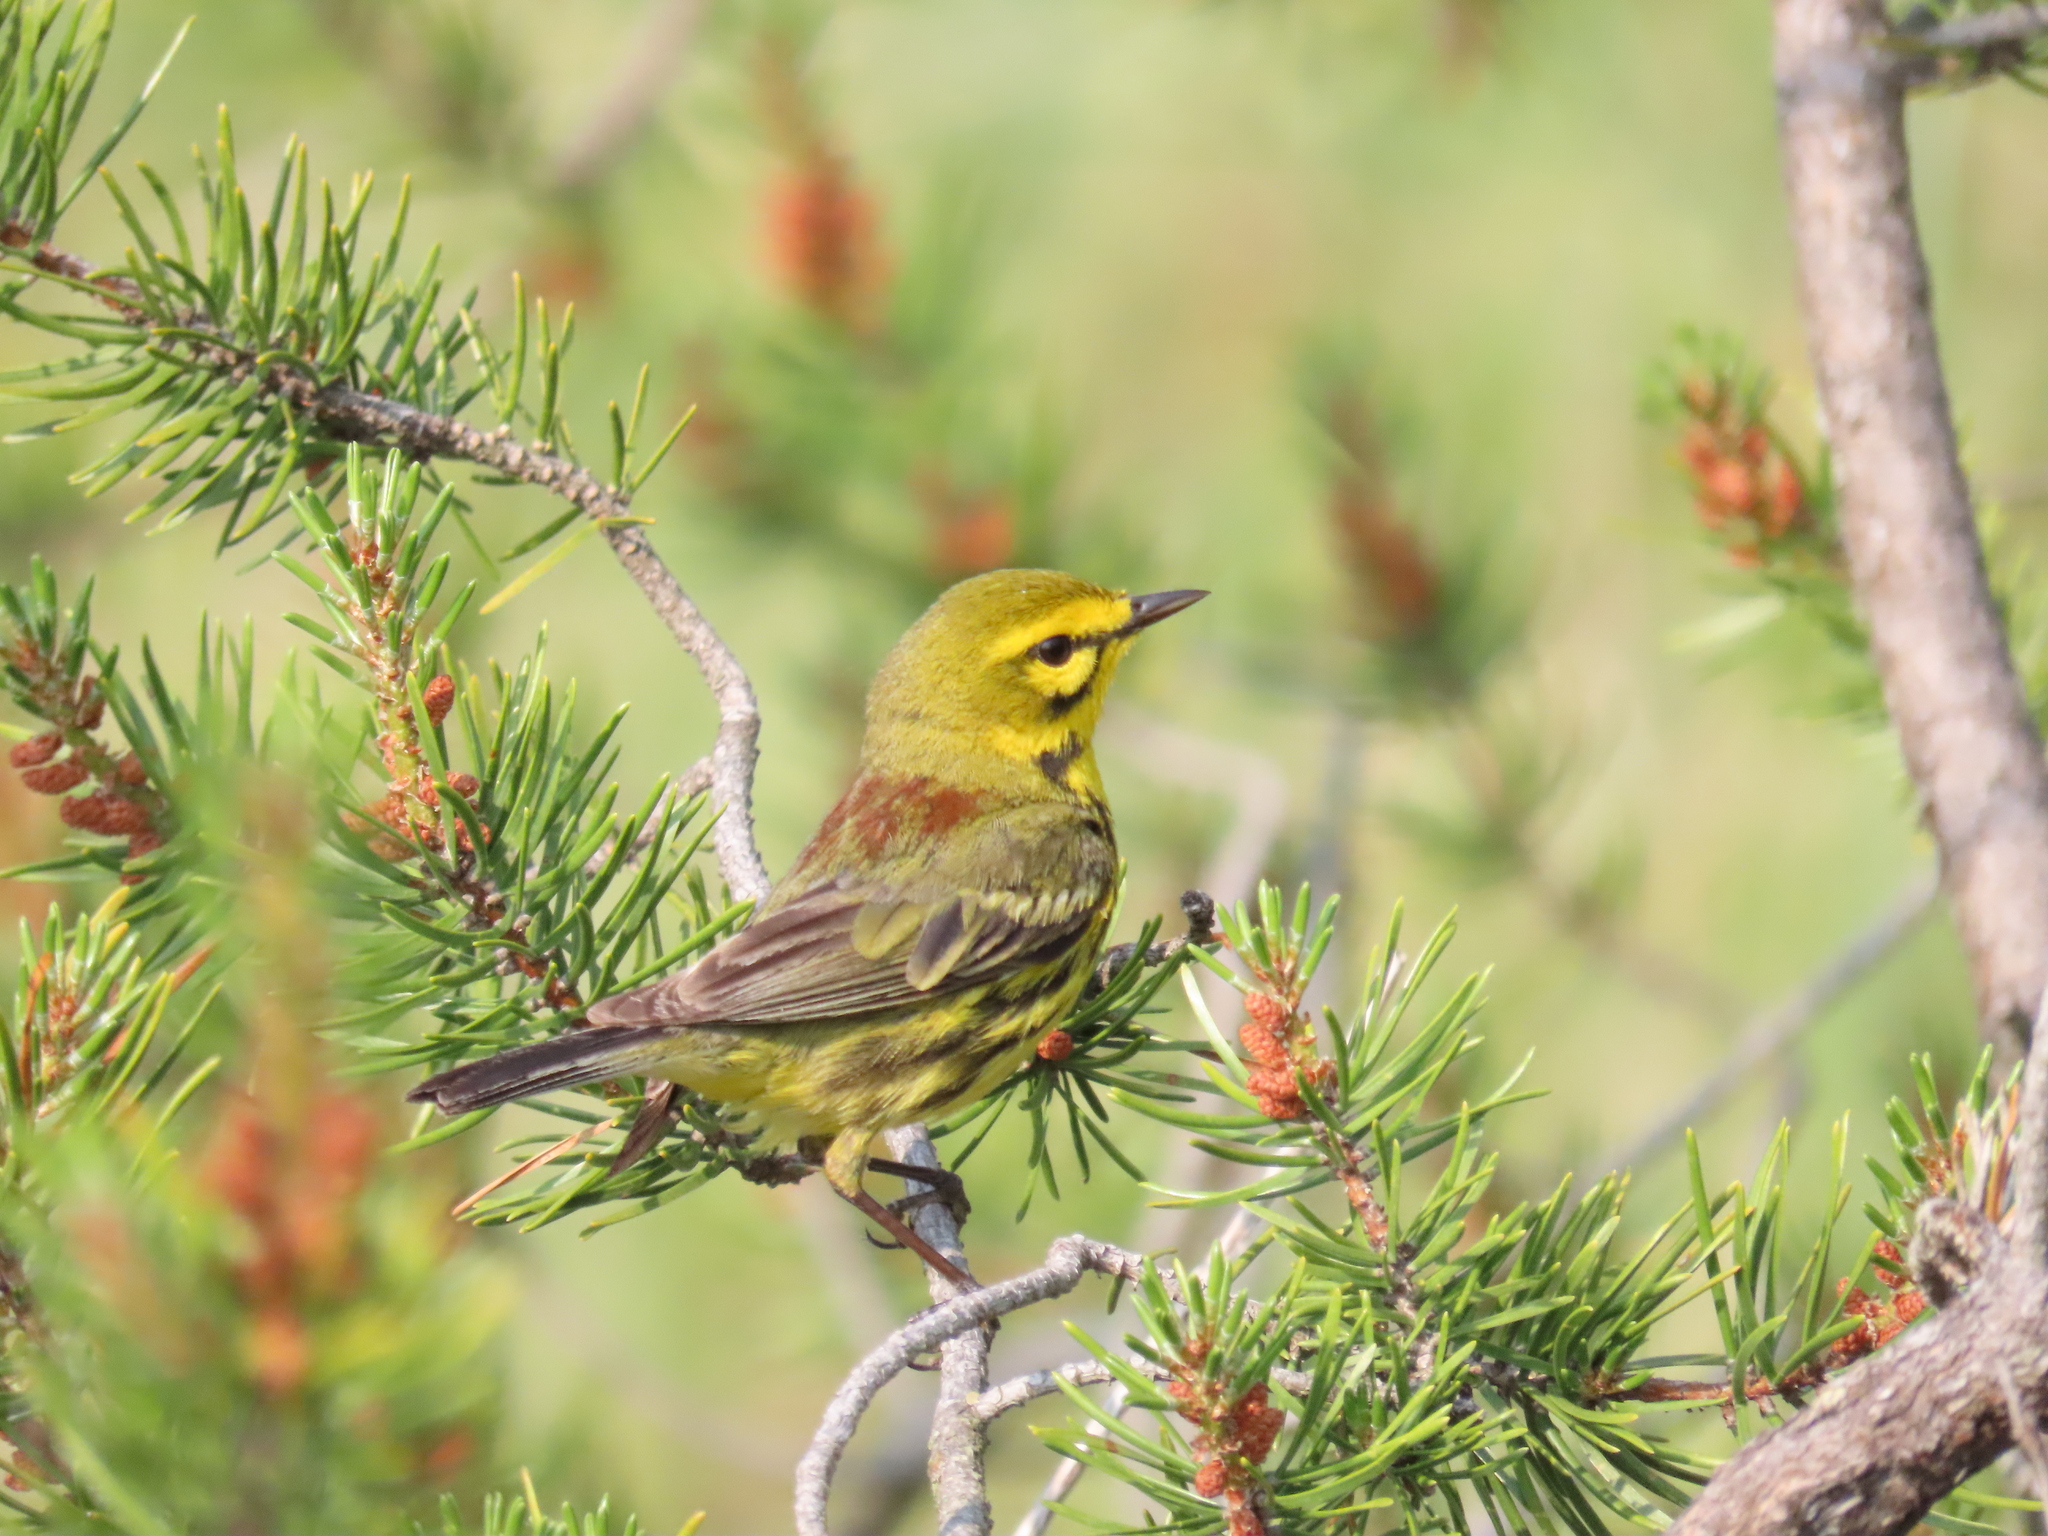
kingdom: Animalia
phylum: Chordata
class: Aves
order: Passeriformes
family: Parulidae
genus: Setophaga
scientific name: Setophaga discolor
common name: Prairie warbler
